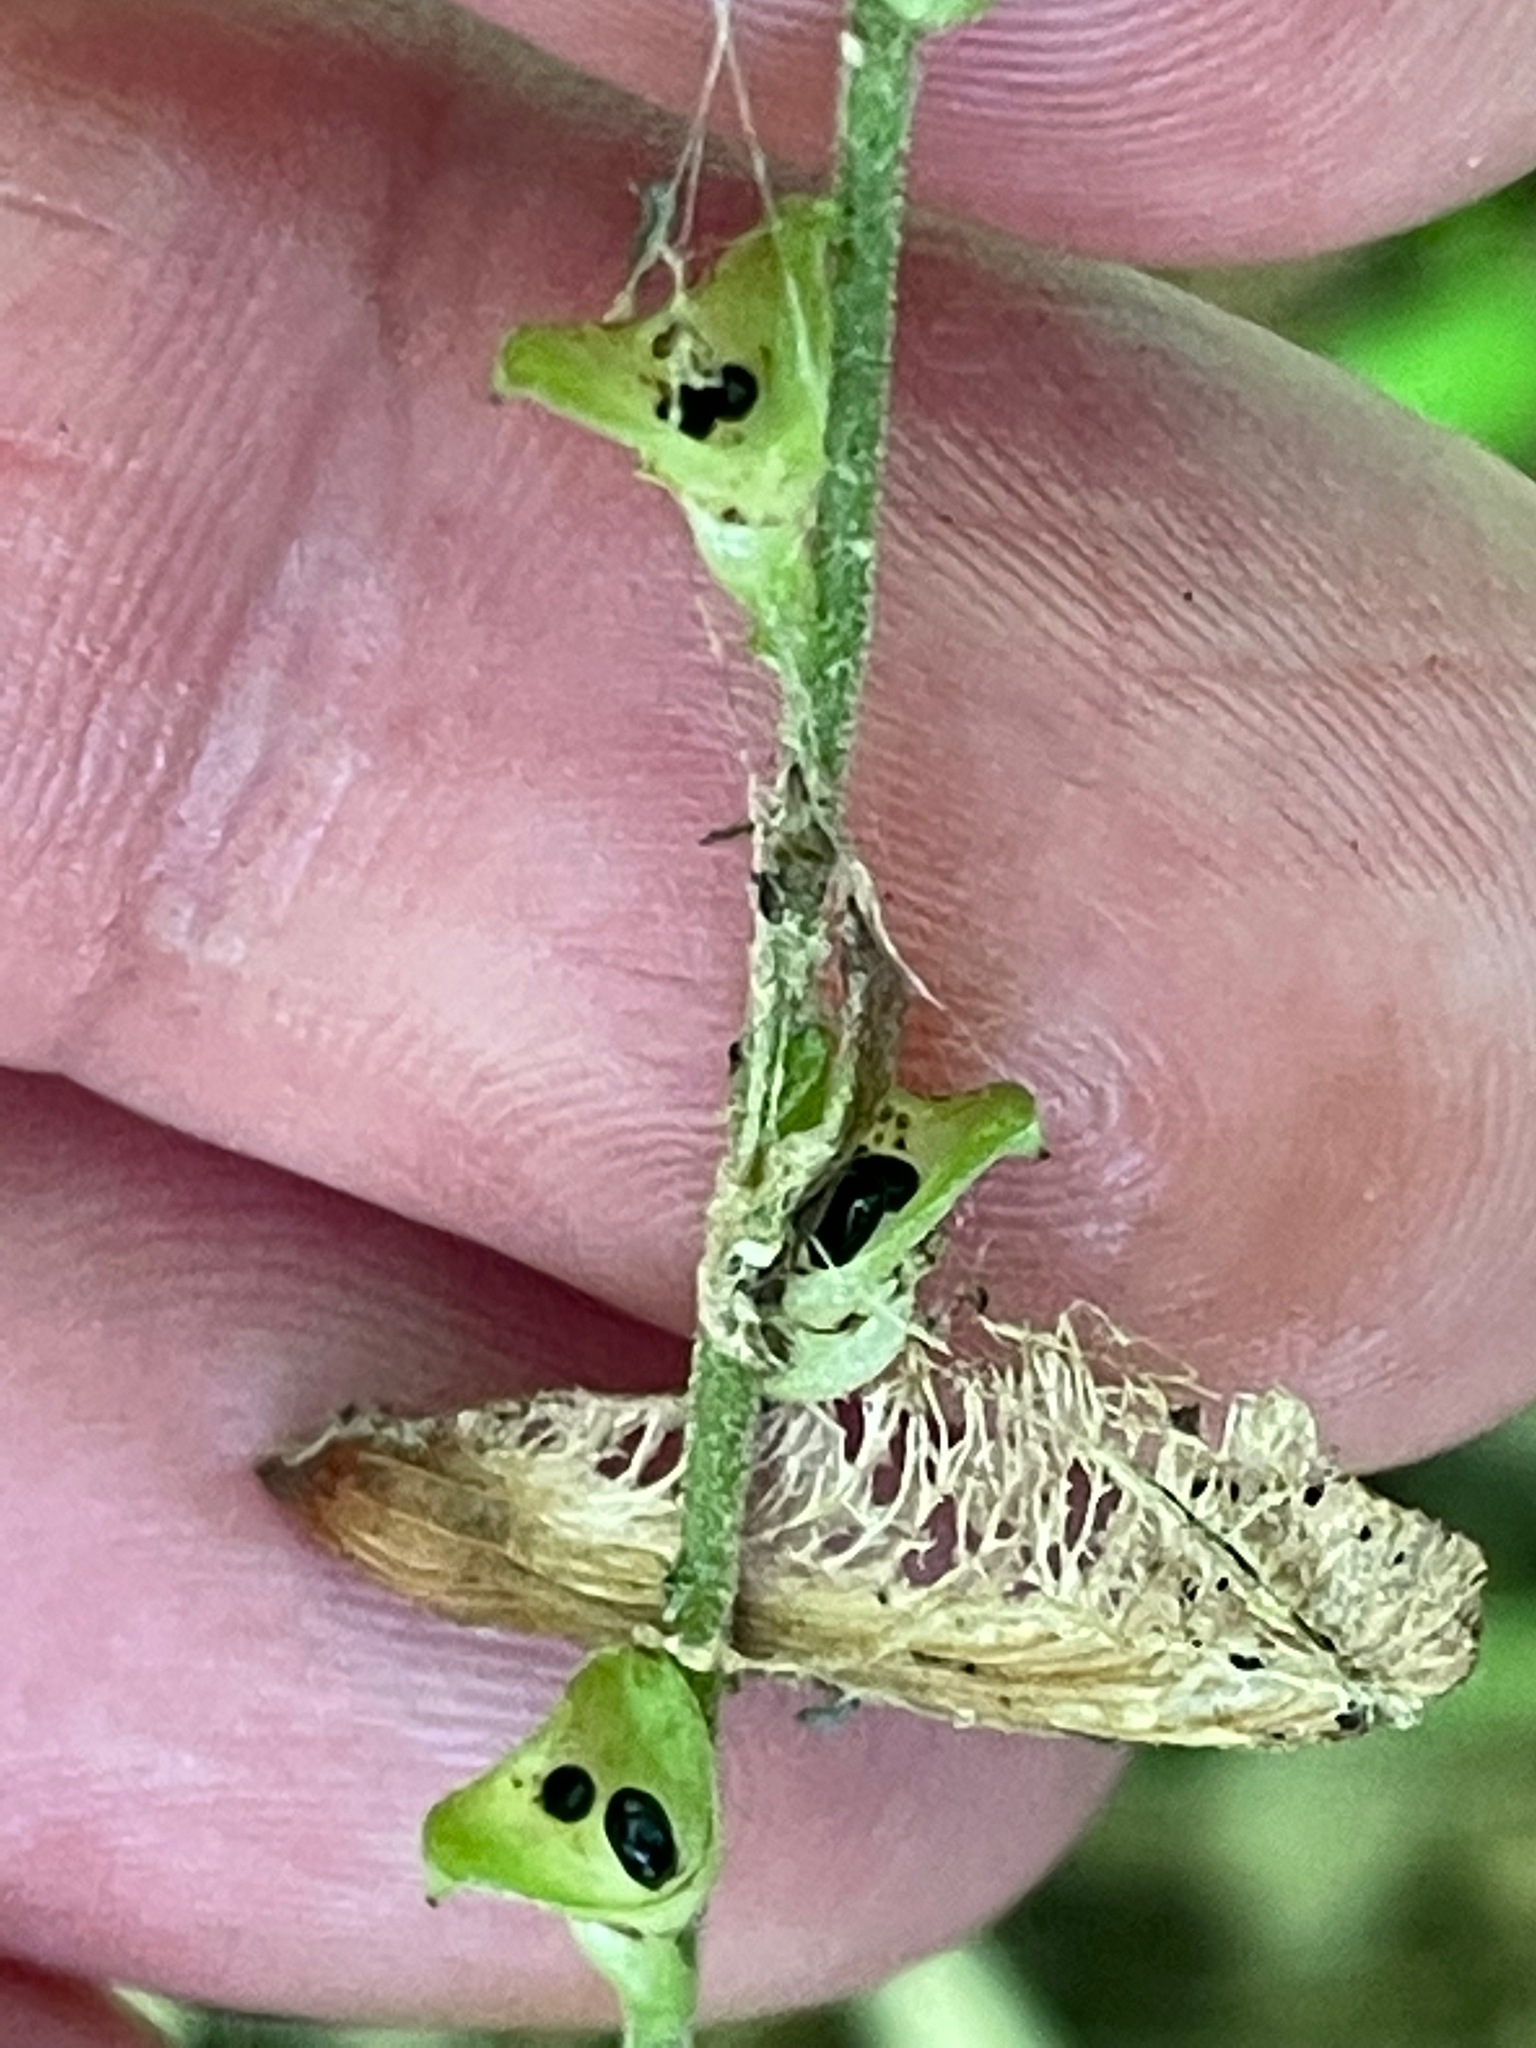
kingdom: Plantae
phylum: Tracheophyta
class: Magnoliopsida
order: Saxifragales
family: Saxifragaceae
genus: Mitella
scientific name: Mitella diphylla
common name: Coolwort
